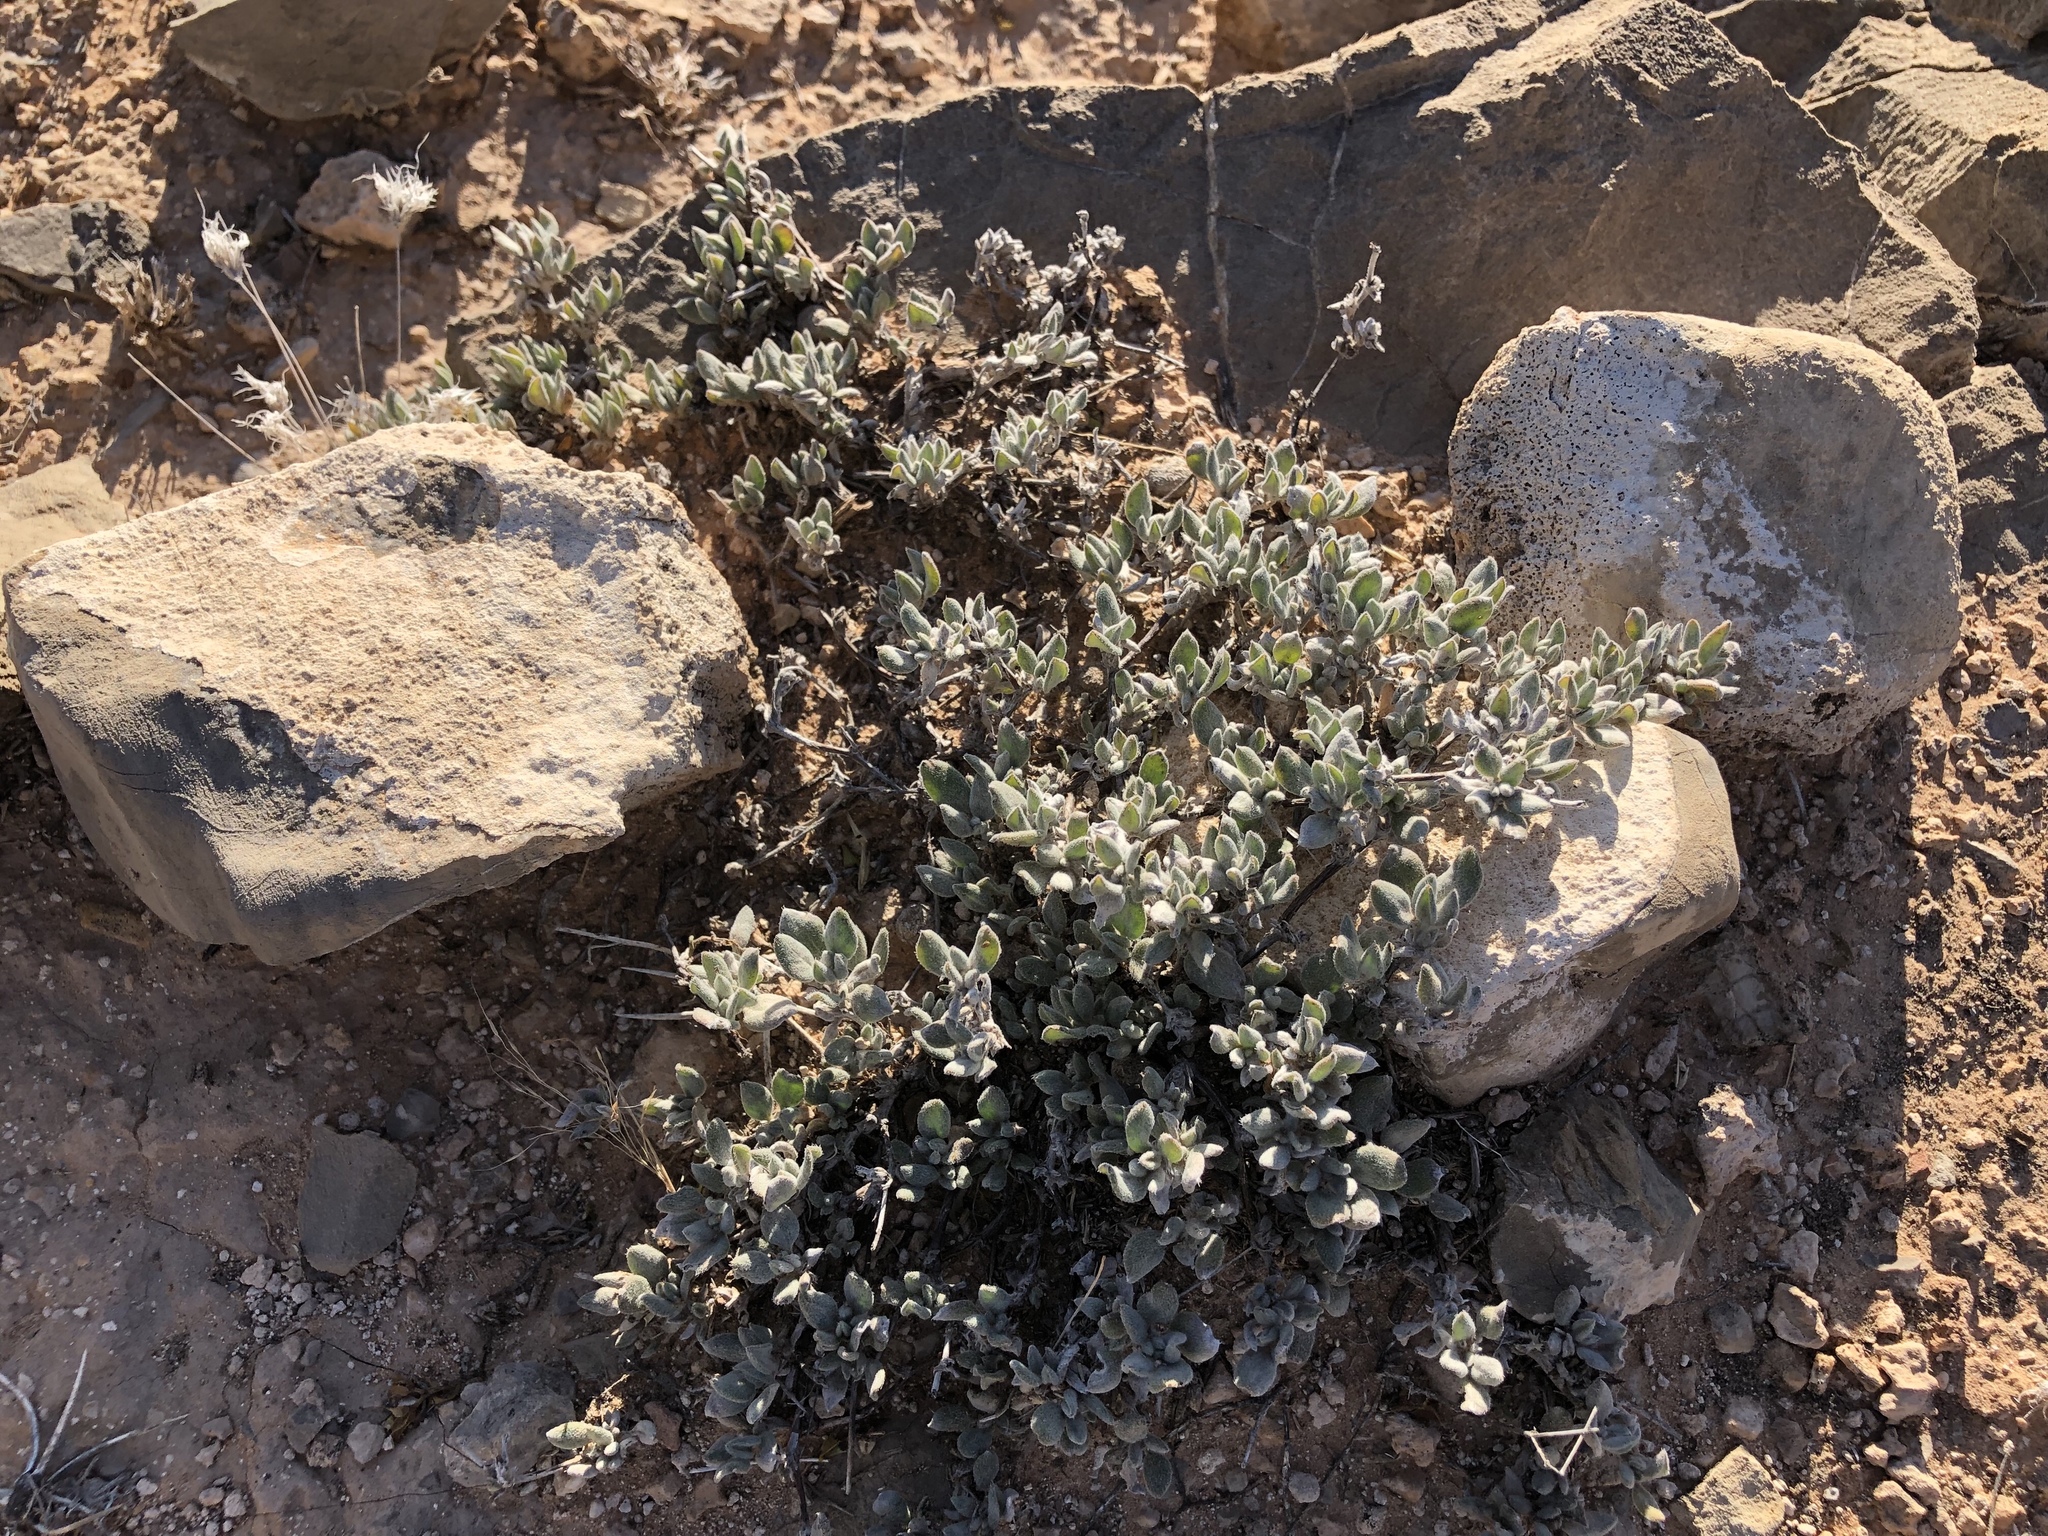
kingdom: Plantae
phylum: Tracheophyta
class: Magnoliopsida
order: Boraginales
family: Ehretiaceae
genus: Tiquilia
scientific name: Tiquilia canescens
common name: Hairy tiquilia
